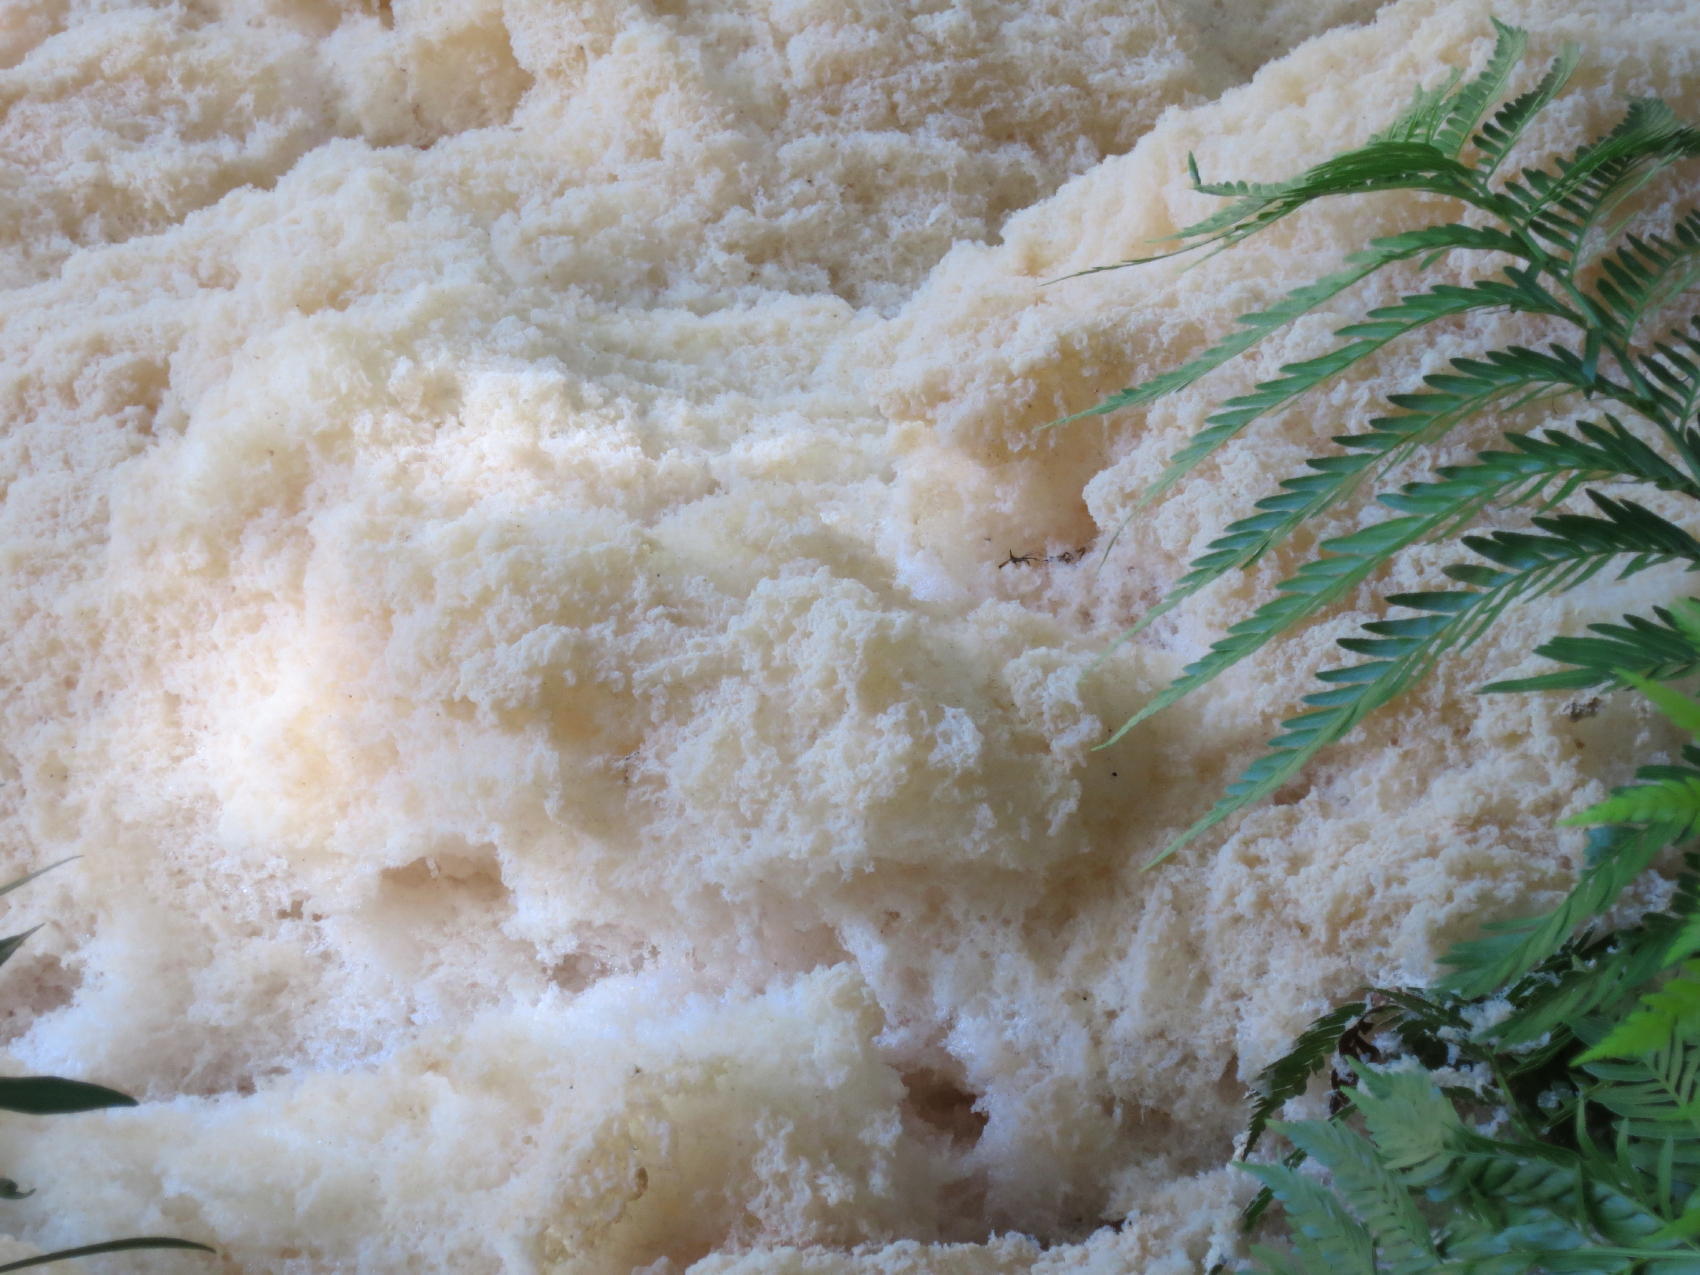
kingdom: Plantae
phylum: Tracheophyta
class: Liliopsida
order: Poales
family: Cyperaceae
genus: Cladium
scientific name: Cladium mariscus
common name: Great fen-sedge
